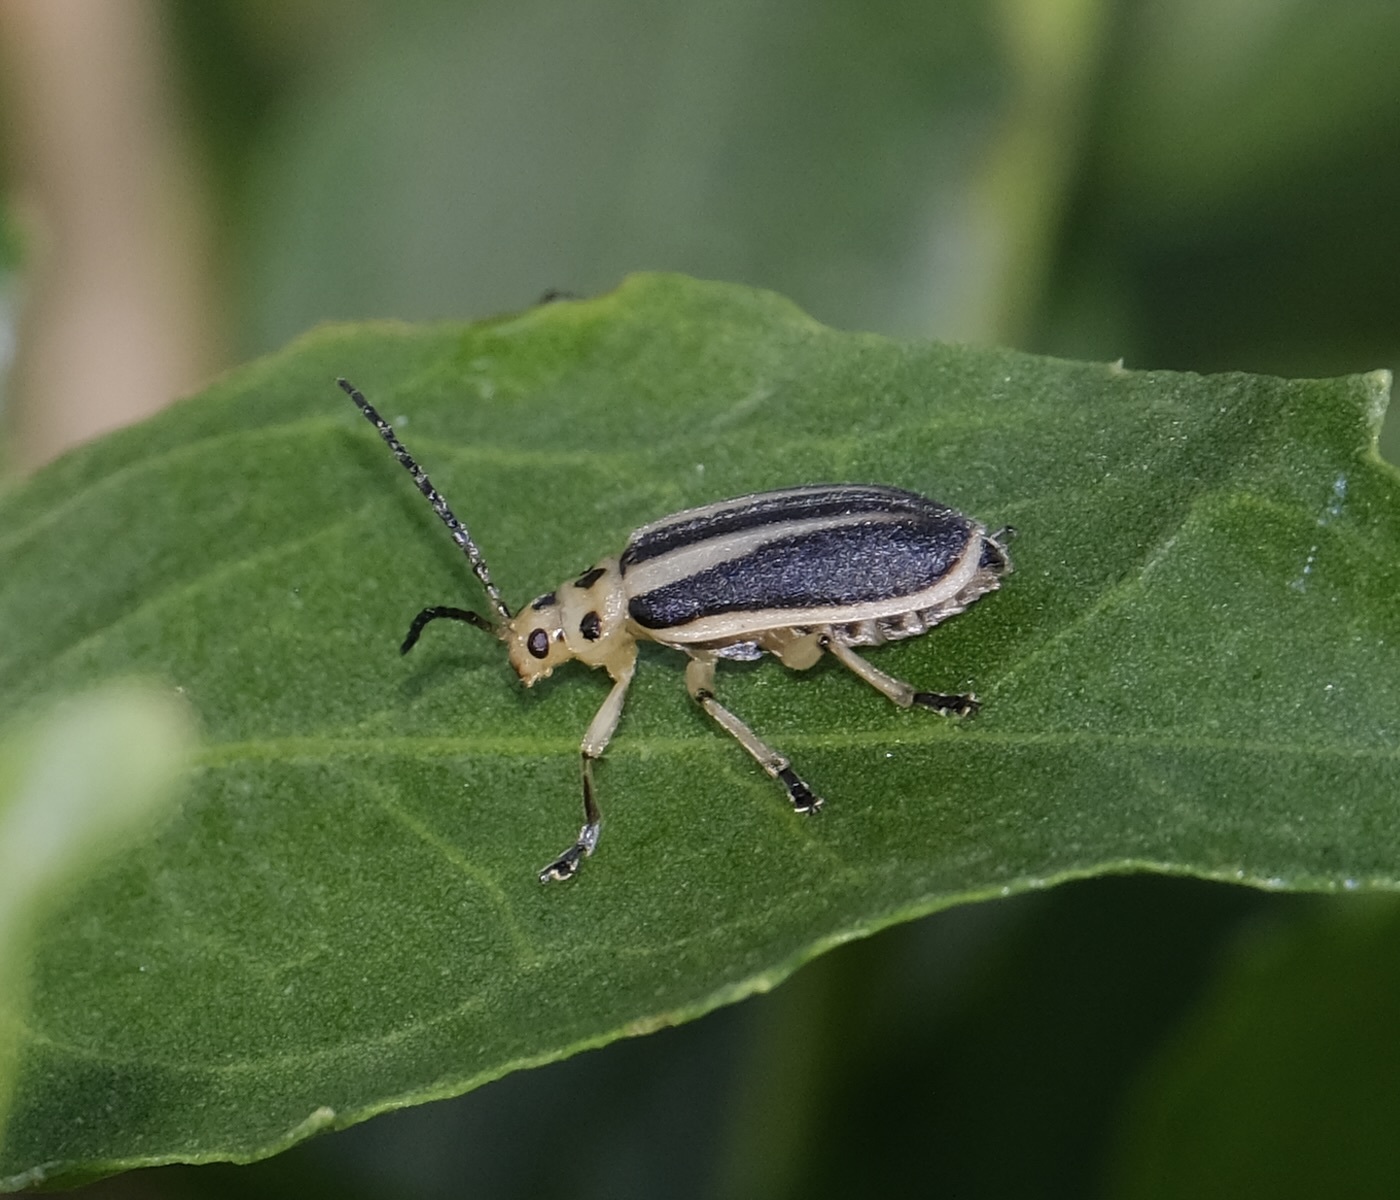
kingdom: Animalia
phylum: Arthropoda
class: Insecta
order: Coleoptera
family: Chrysomelidae
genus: Trirhabda
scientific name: Trirhabda bacharidis
